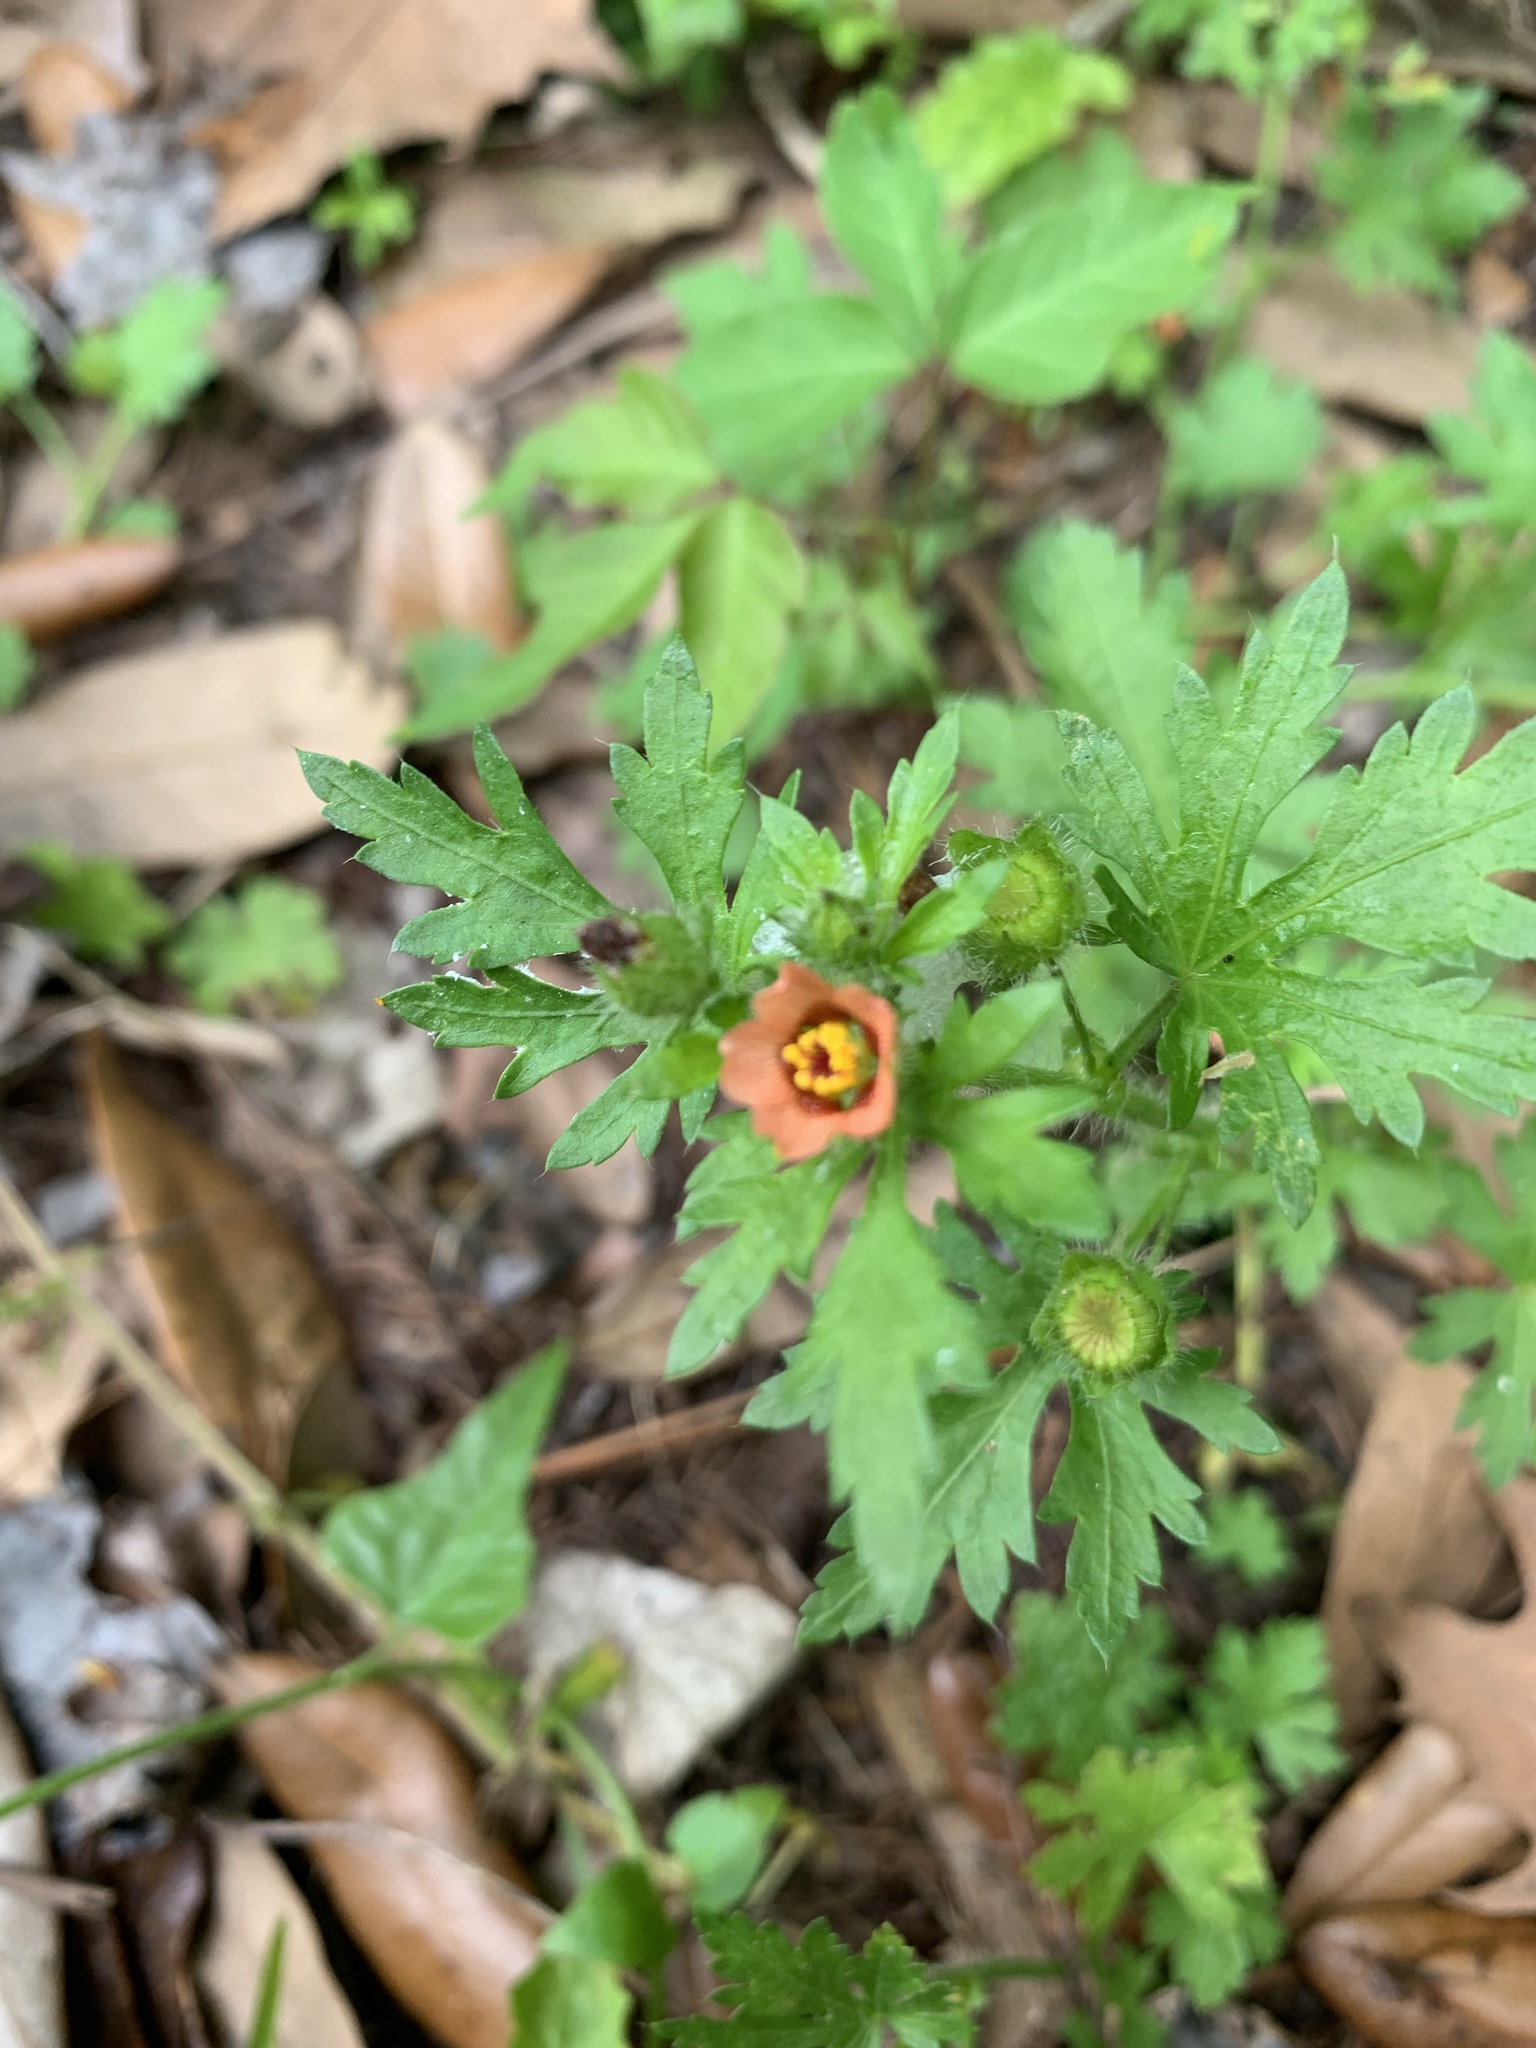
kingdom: Plantae
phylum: Tracheophyta
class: Magnoliopsida
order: Malvales
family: Malvaceae
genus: Modiola
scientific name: Modiola caroliniana
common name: Carolina bristlemallow
